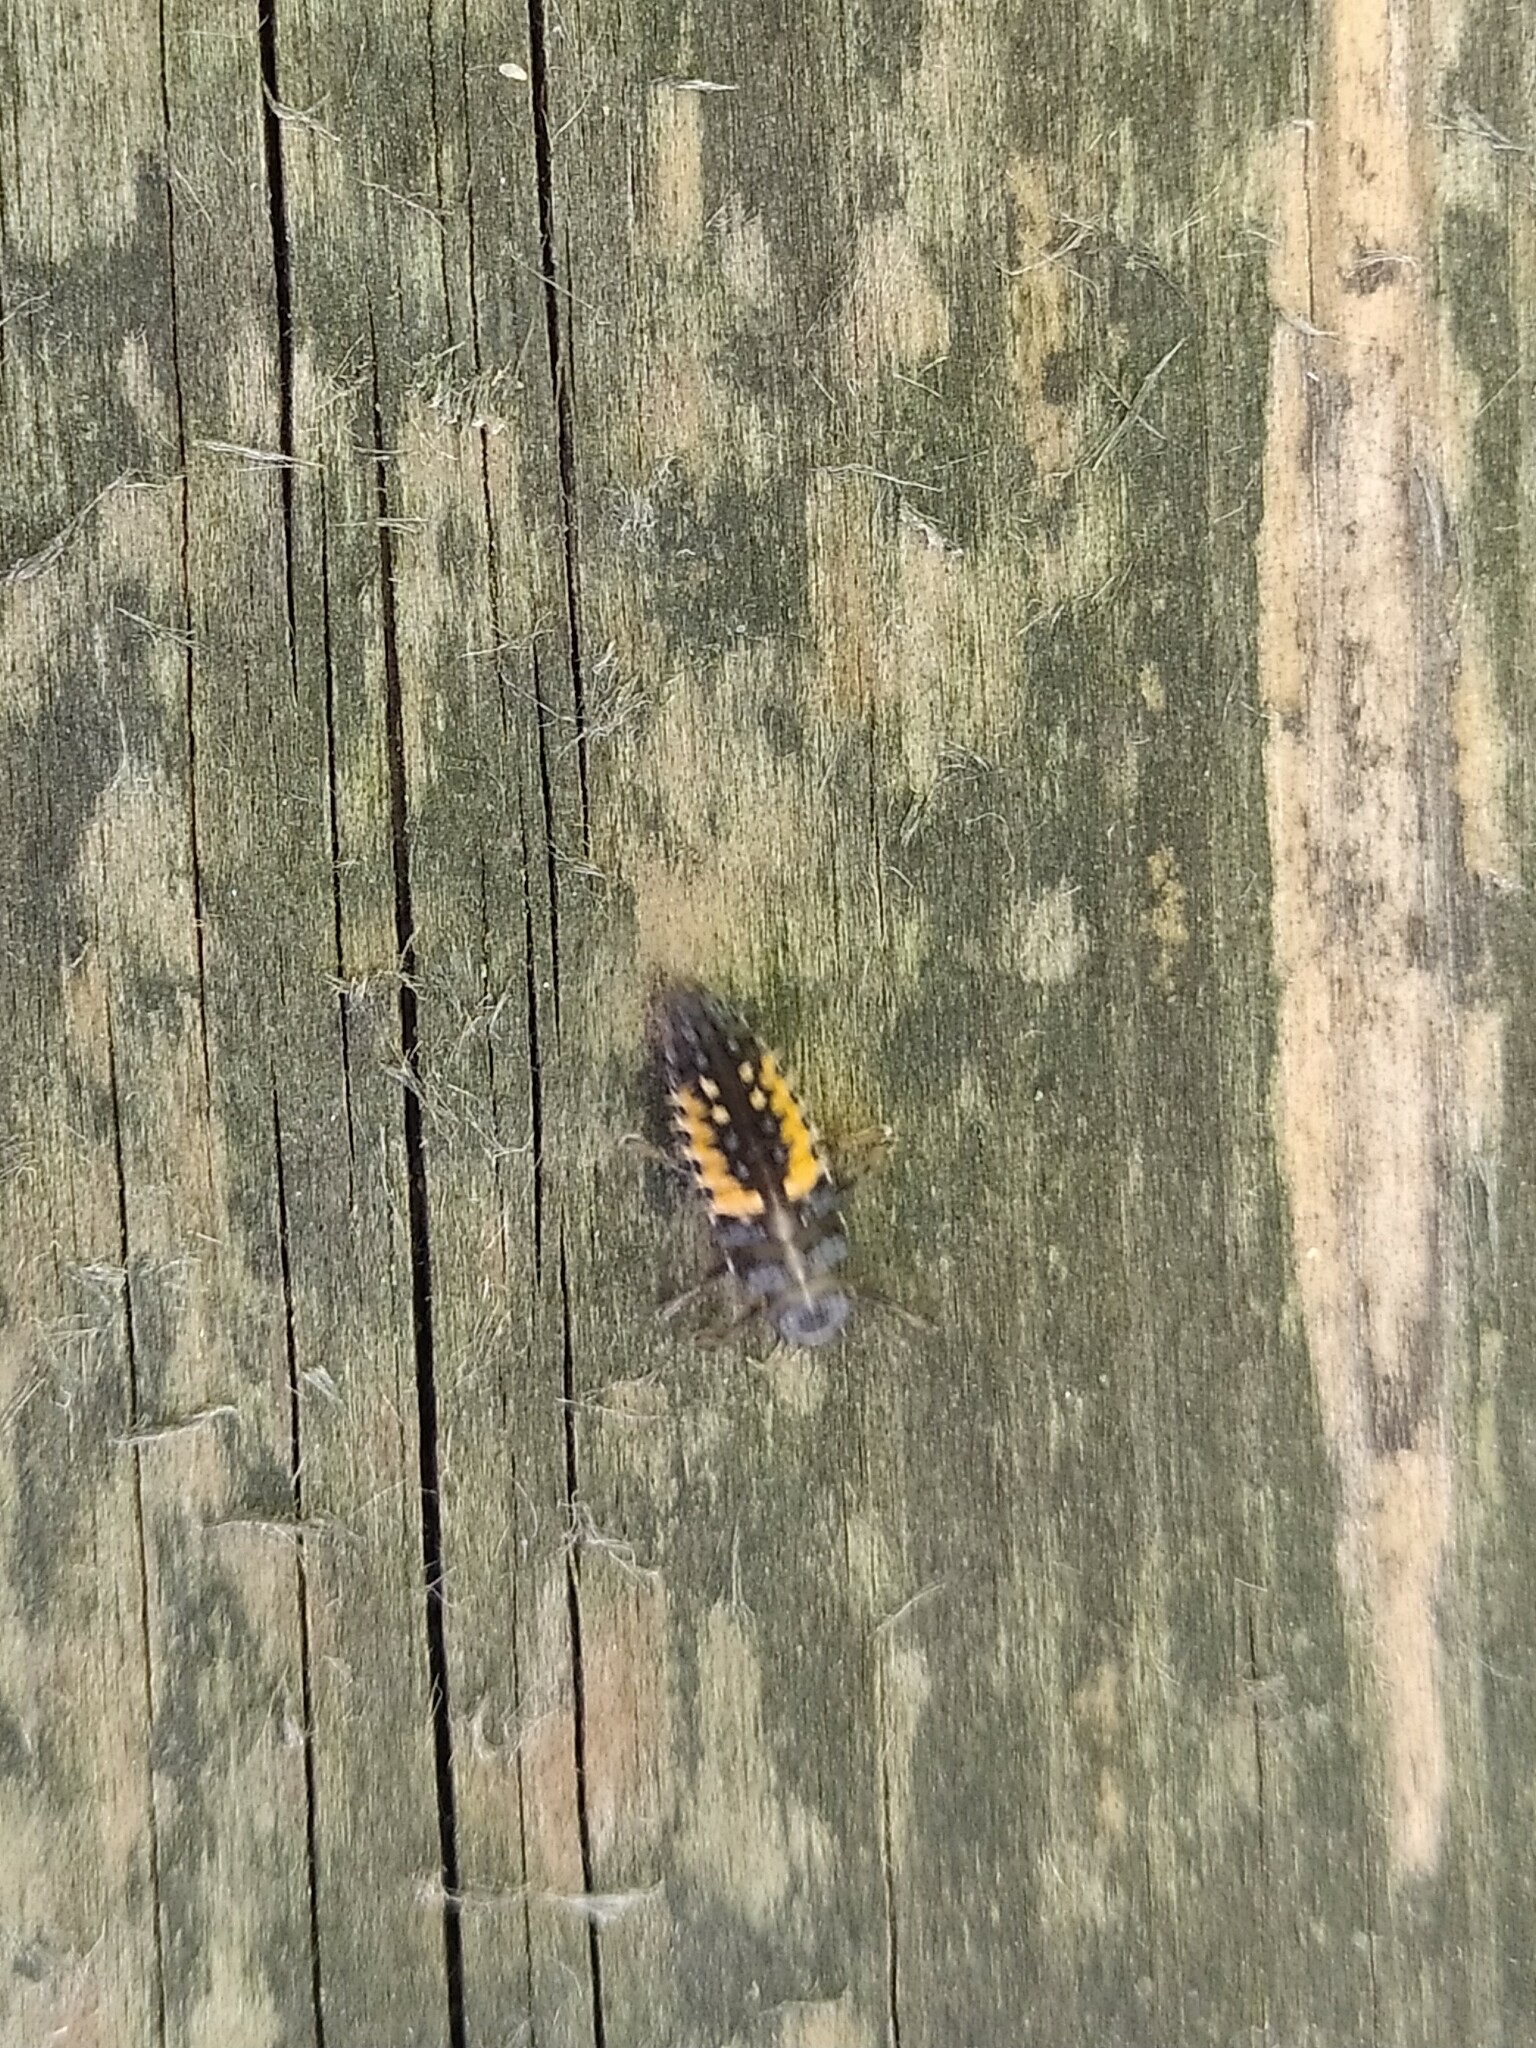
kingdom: Animalia
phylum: Arthropoda
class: Insecta
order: Coleoptera
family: Coccinellidae
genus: Harmonia
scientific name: Harmonia axyridis
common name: Harlequin ladybird
